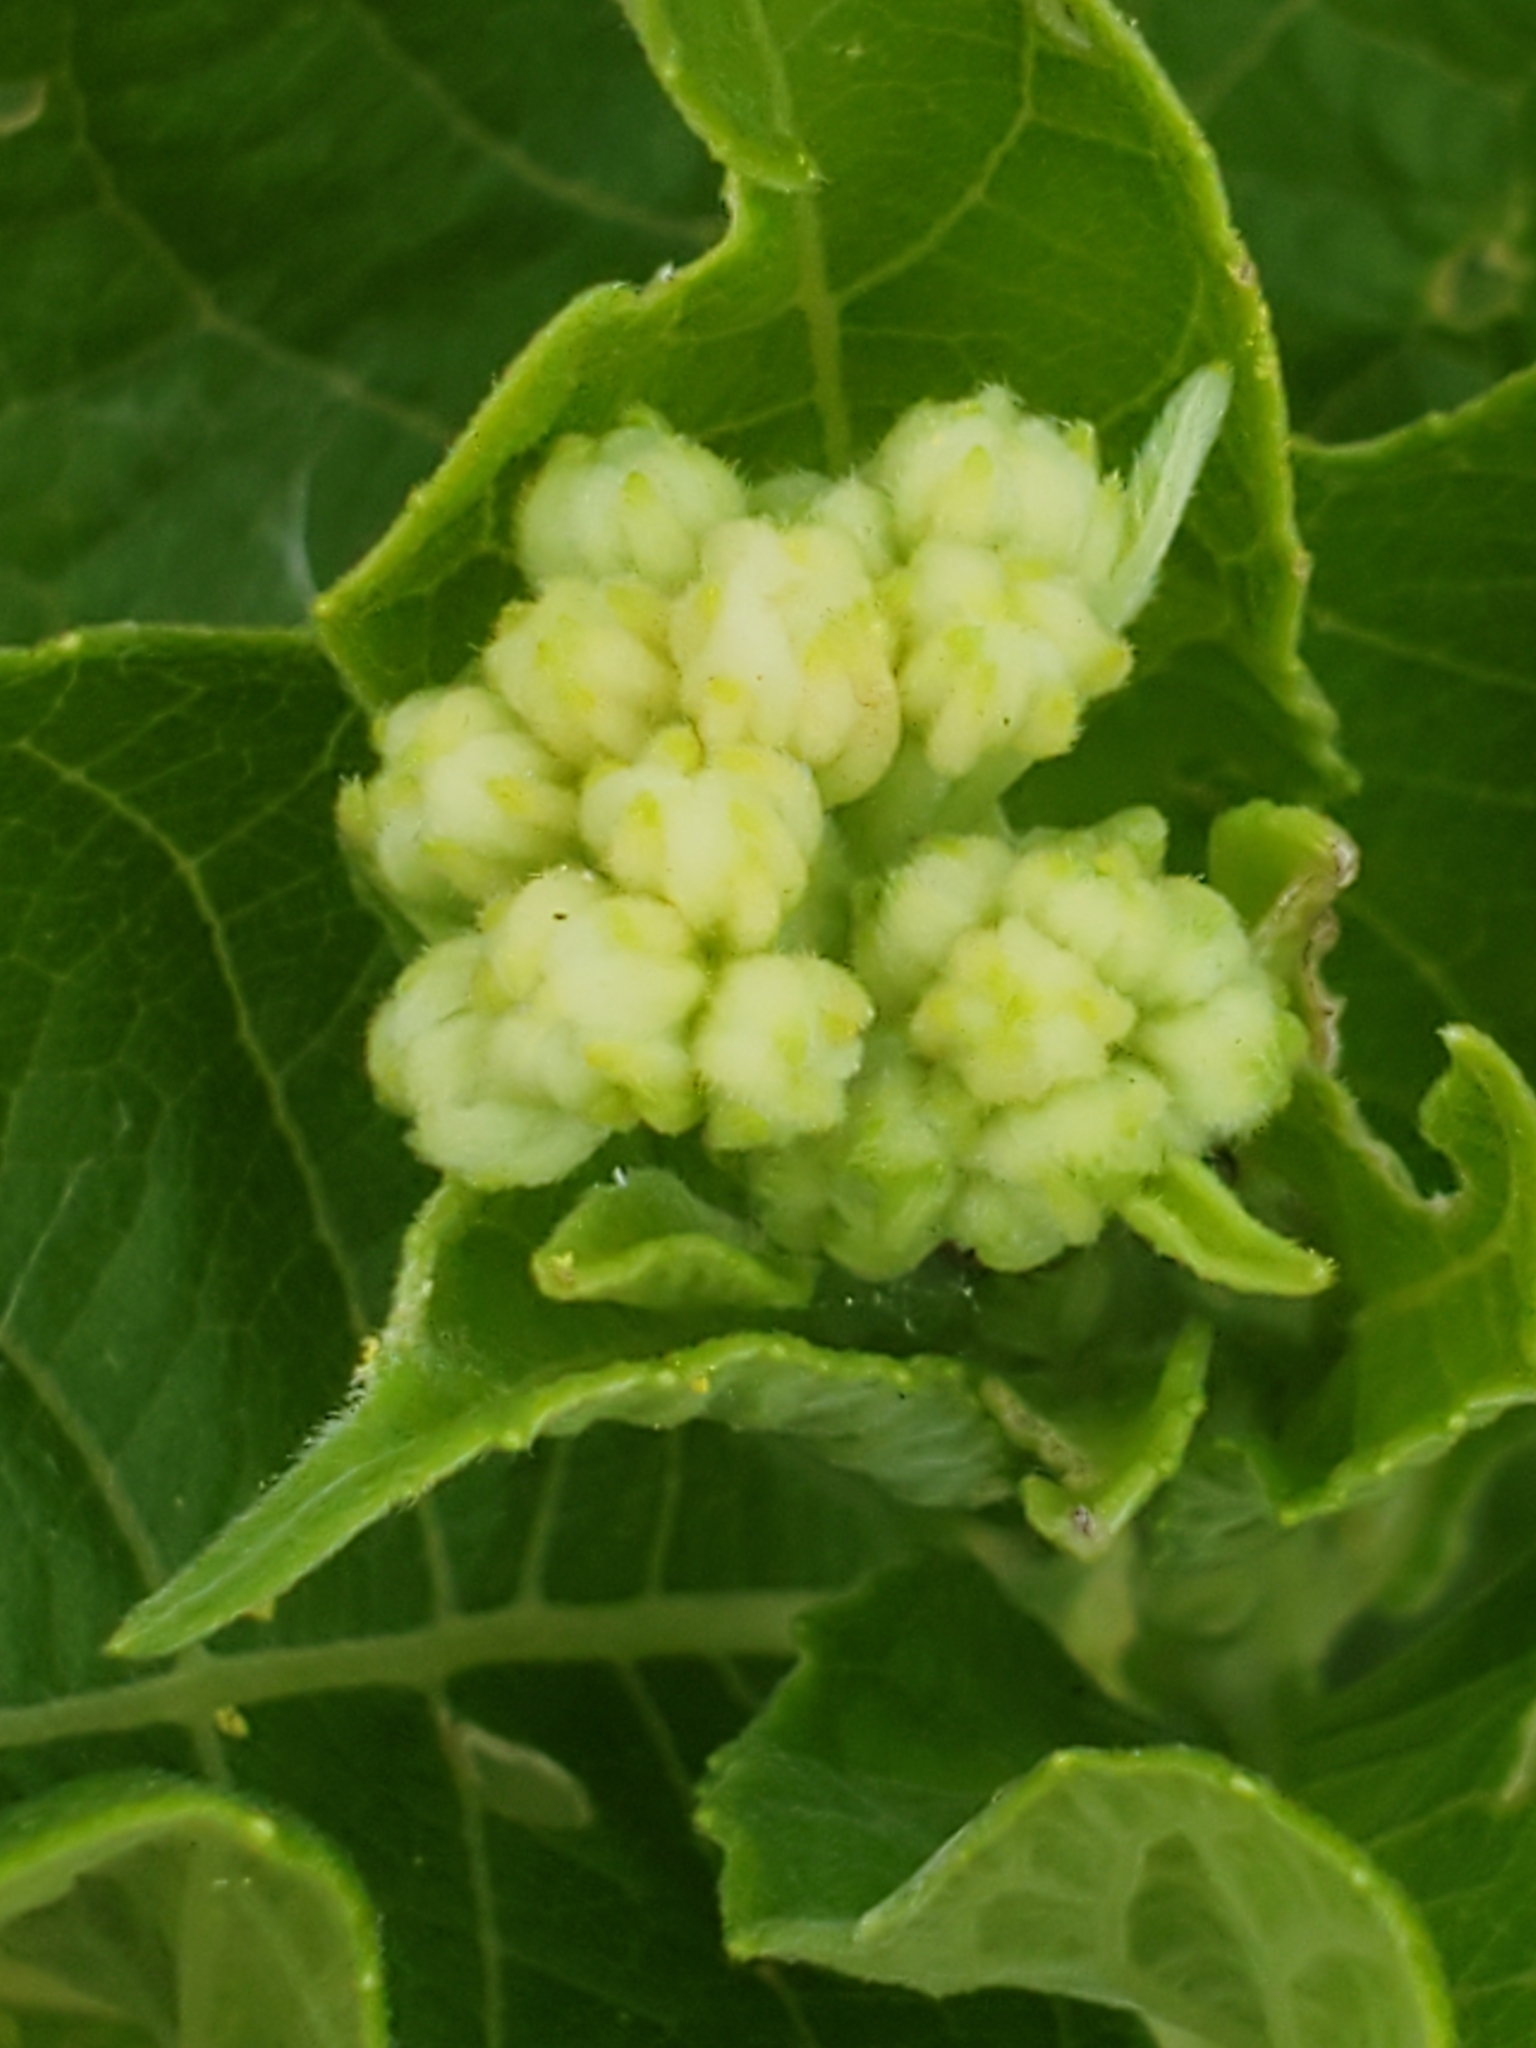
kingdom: Plantae
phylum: Tracheophyta
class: Magnoliopsida
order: Asterales
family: Asteraceae
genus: Verbesina
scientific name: Verbesina virginica
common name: Frostweed
